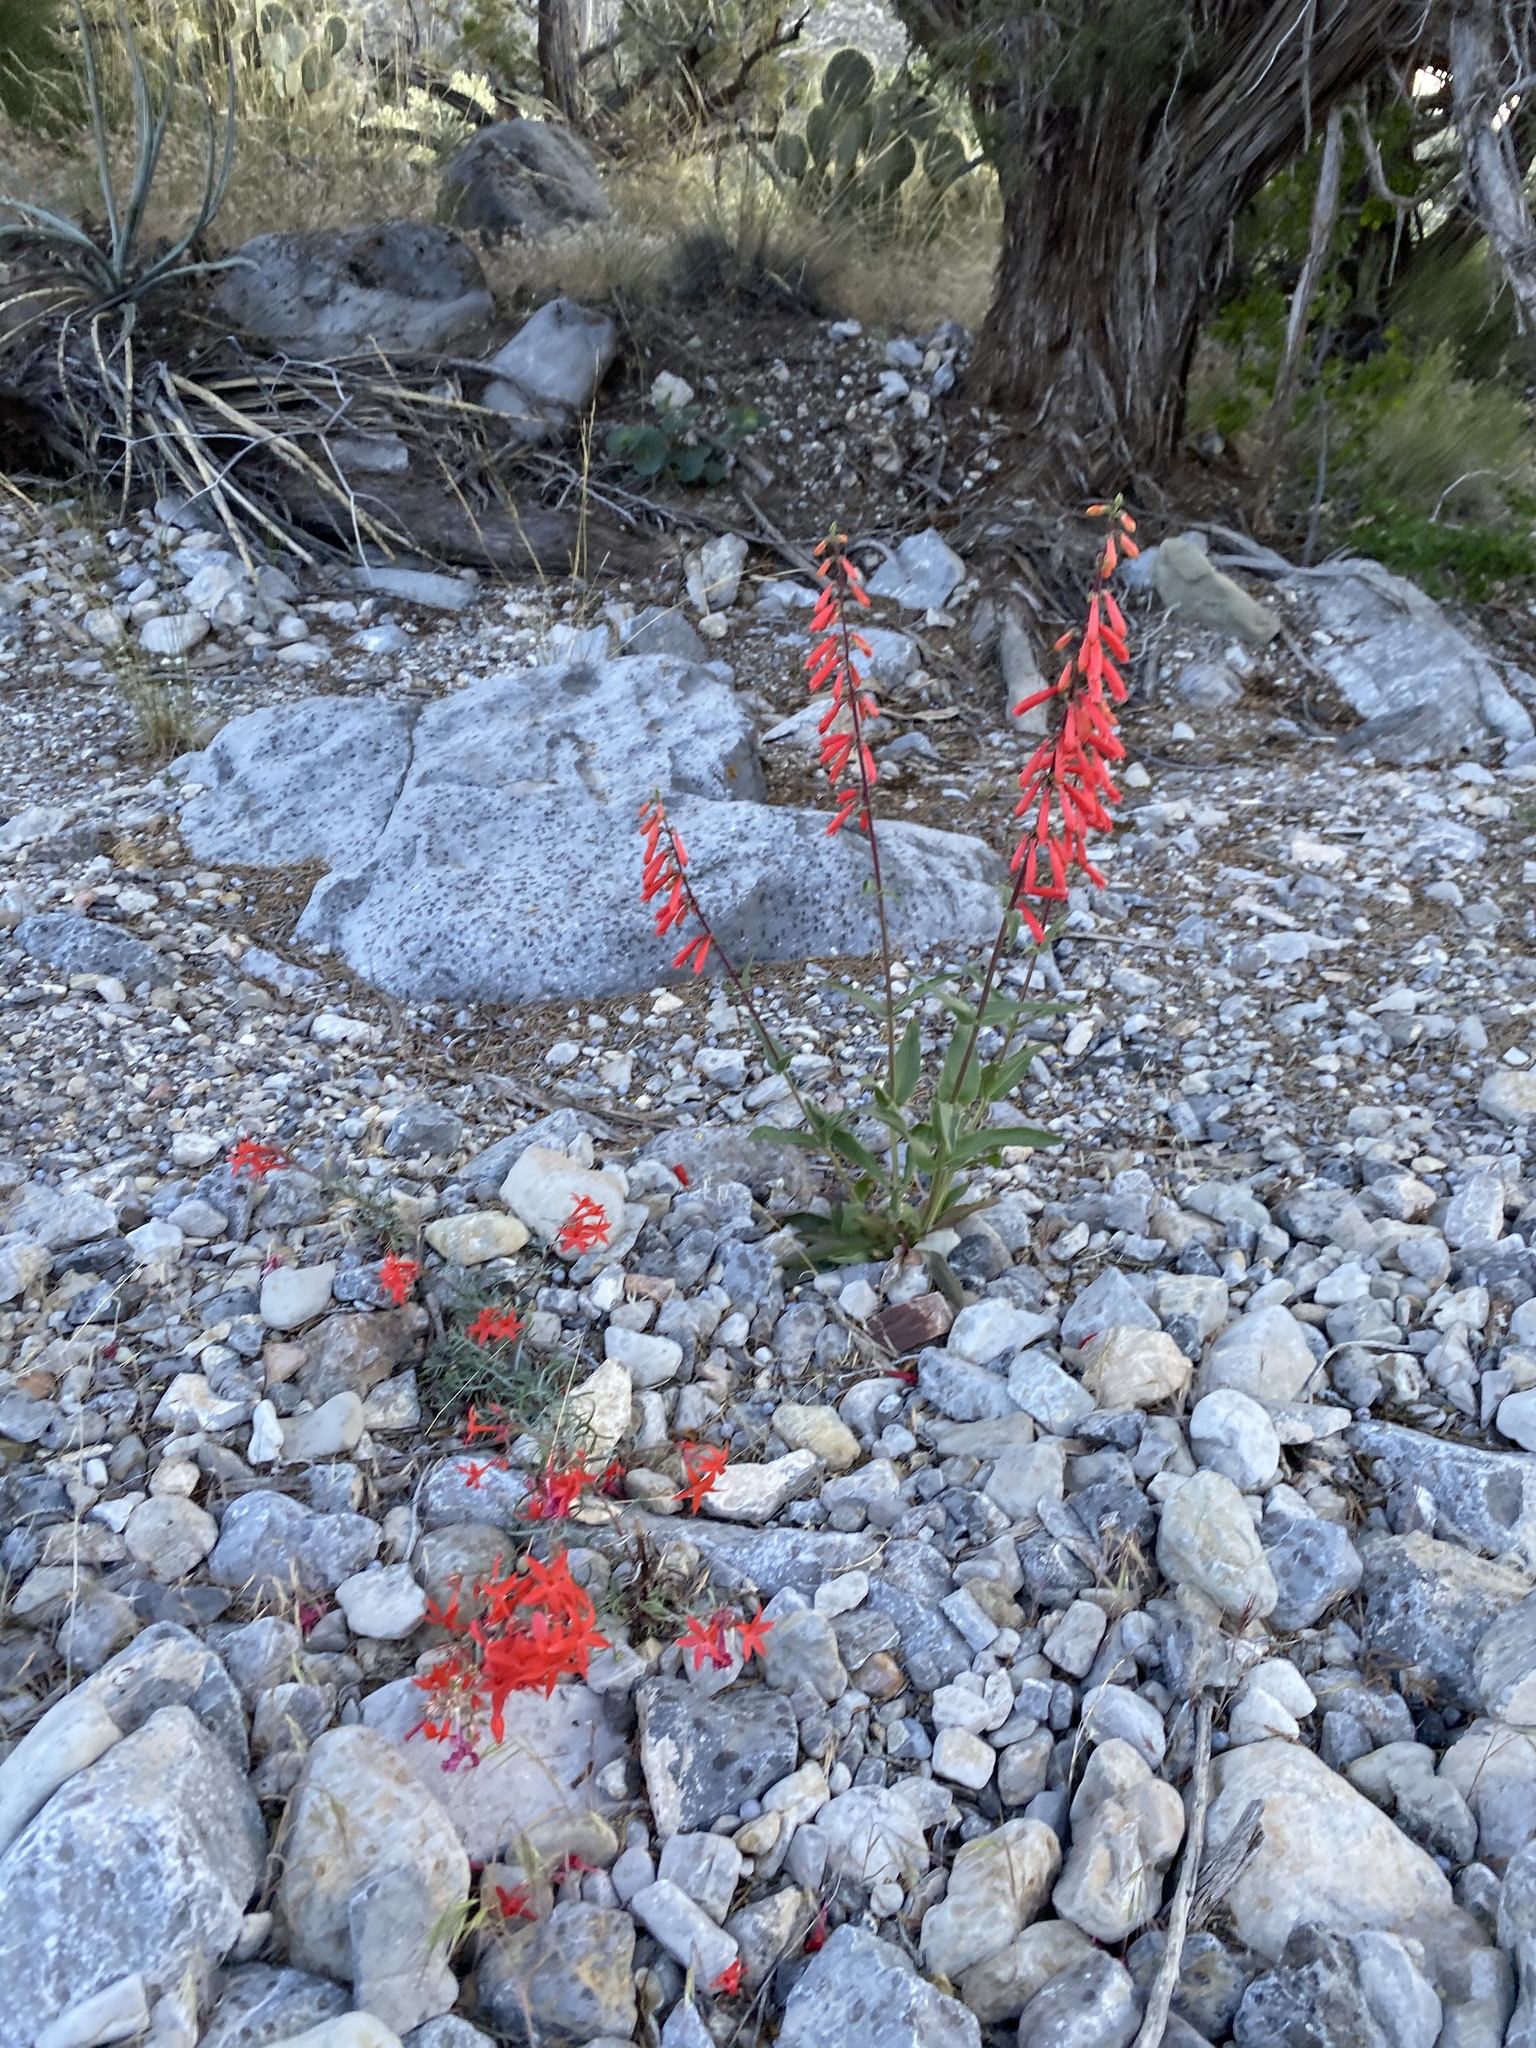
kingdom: Plantae
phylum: Tracheophyta
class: Magnoliopsida
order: Lamiales
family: Plantaginaceae
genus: Penstemon
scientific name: Penstemon eatonii
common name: Eaton's penstemon
